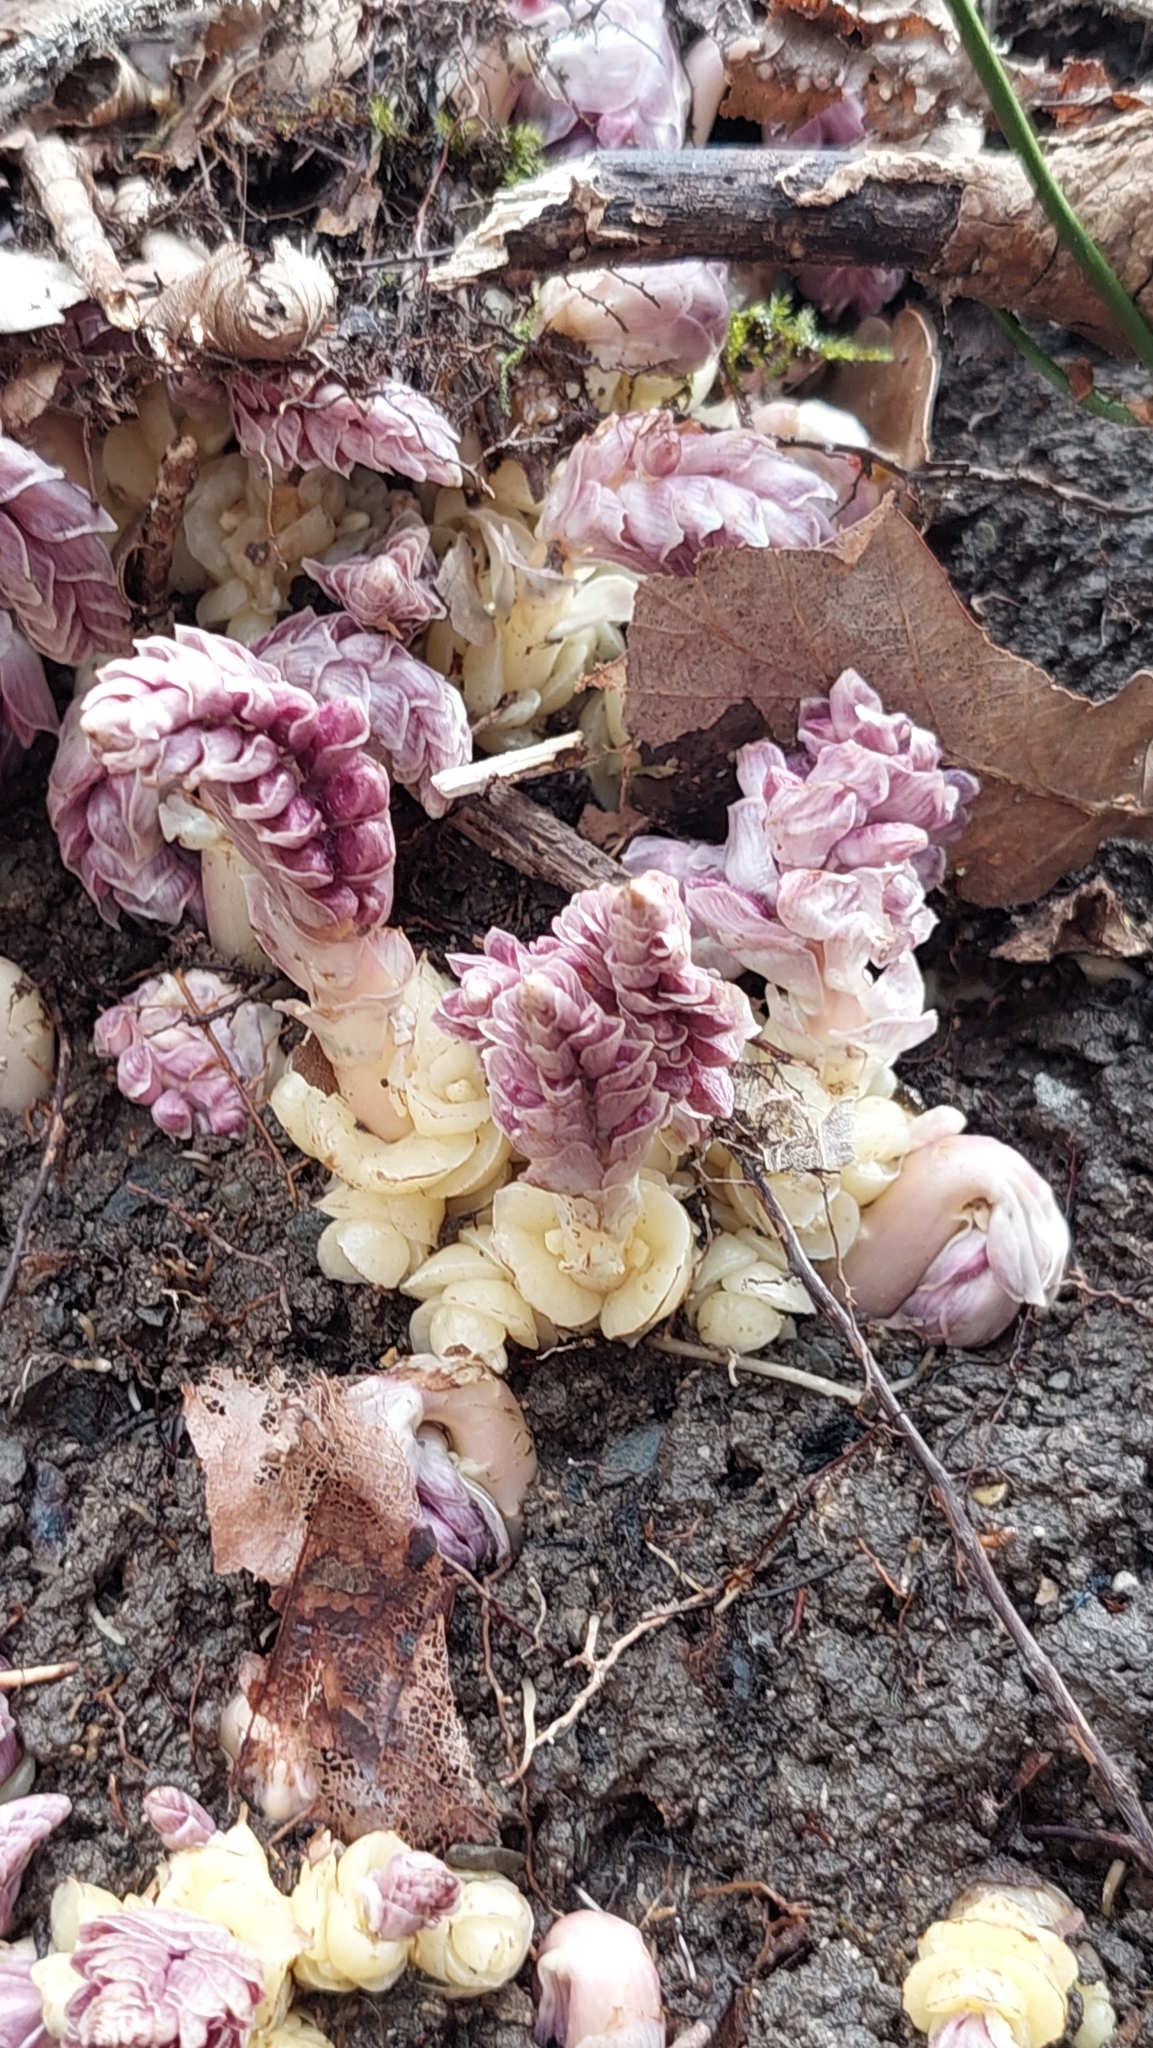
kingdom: Plantae
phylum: Tracheophyta
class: Magnoliopsida
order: Lamiales
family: Orobanchaceae
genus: Lathraea
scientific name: Lathraea squamaria
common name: Toothwort
